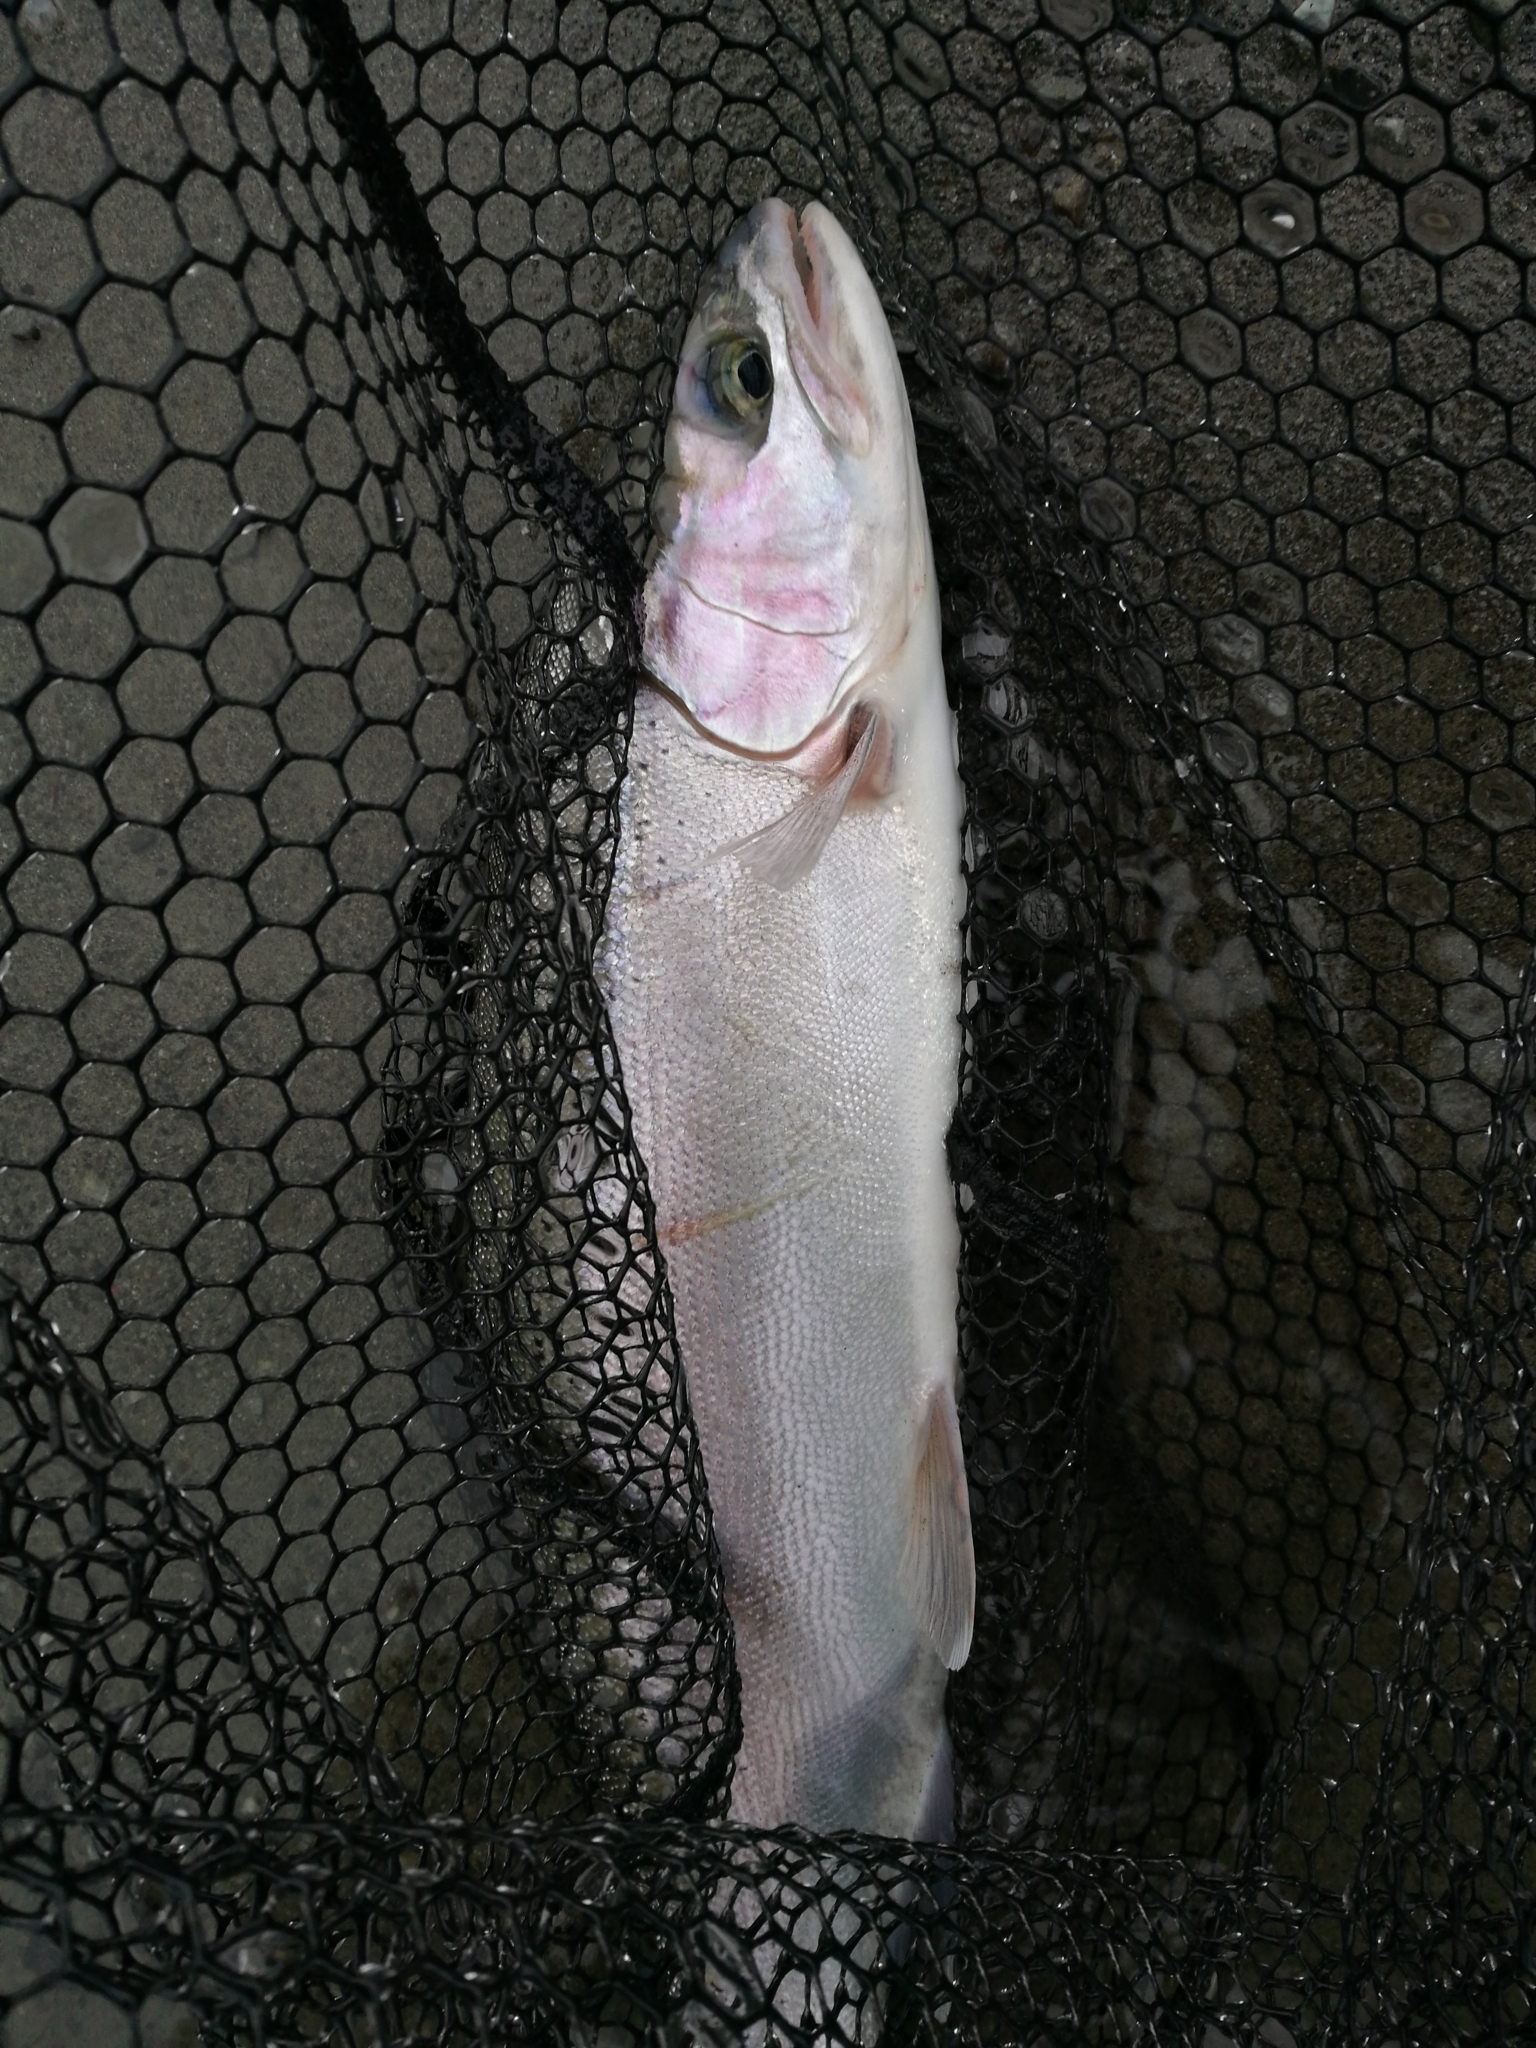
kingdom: Animalia
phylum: Chordata
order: Salmoniformes
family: Salmonidae
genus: Oncorhynchus
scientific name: Oncorhynchus mykiss
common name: Rainbow trout
